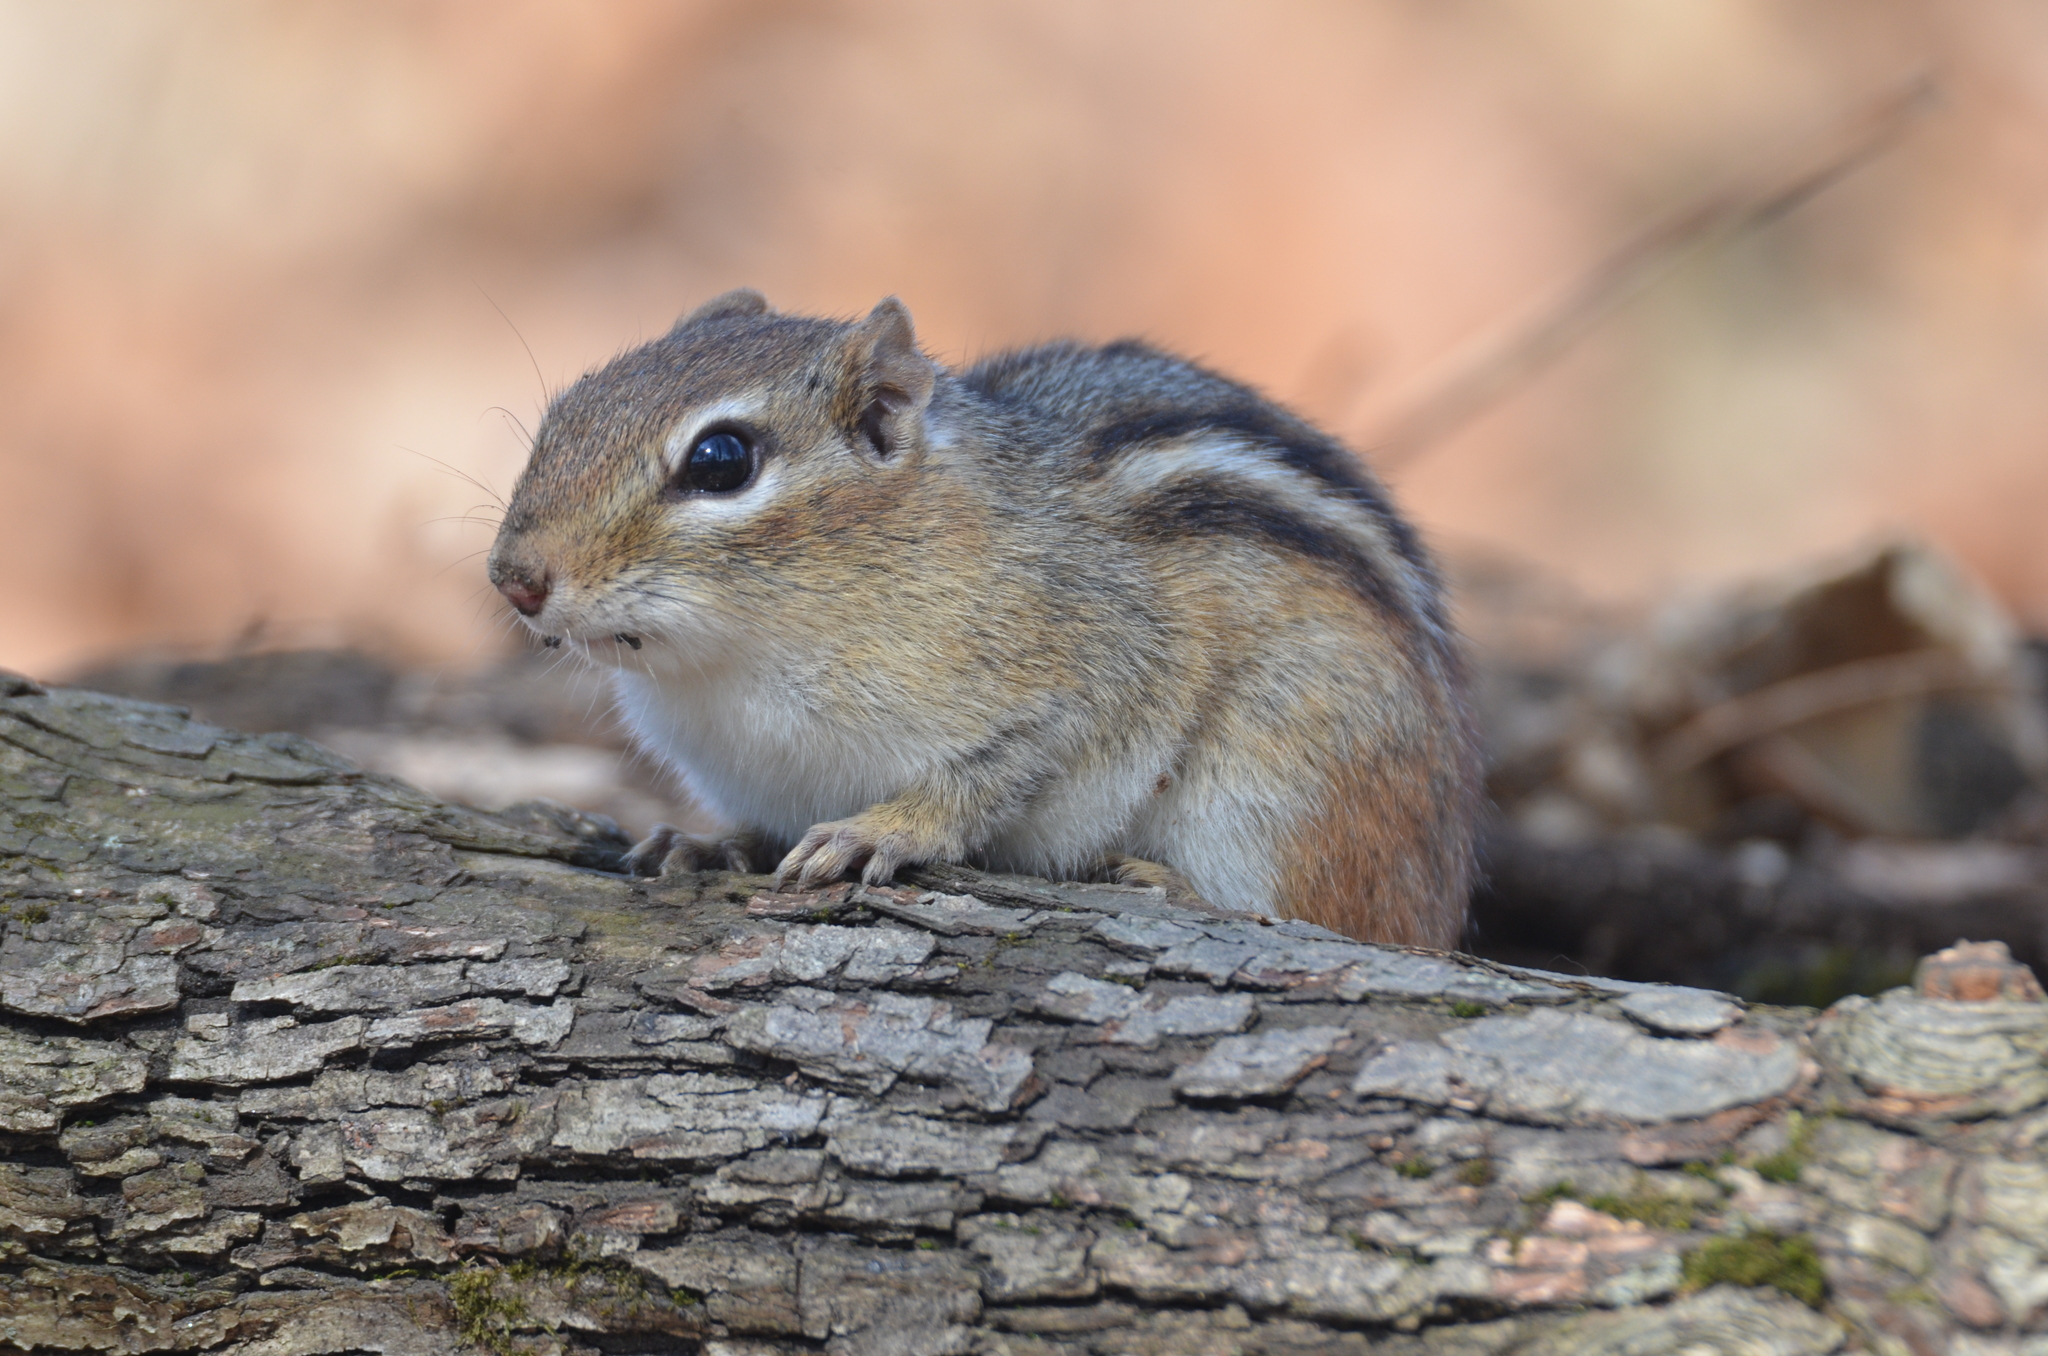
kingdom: Animalia
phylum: Chordata
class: Mammalia
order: Rodentia
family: Sciuridae
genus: Tamias
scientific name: Tamias striatus
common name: Eastern chipmunk
